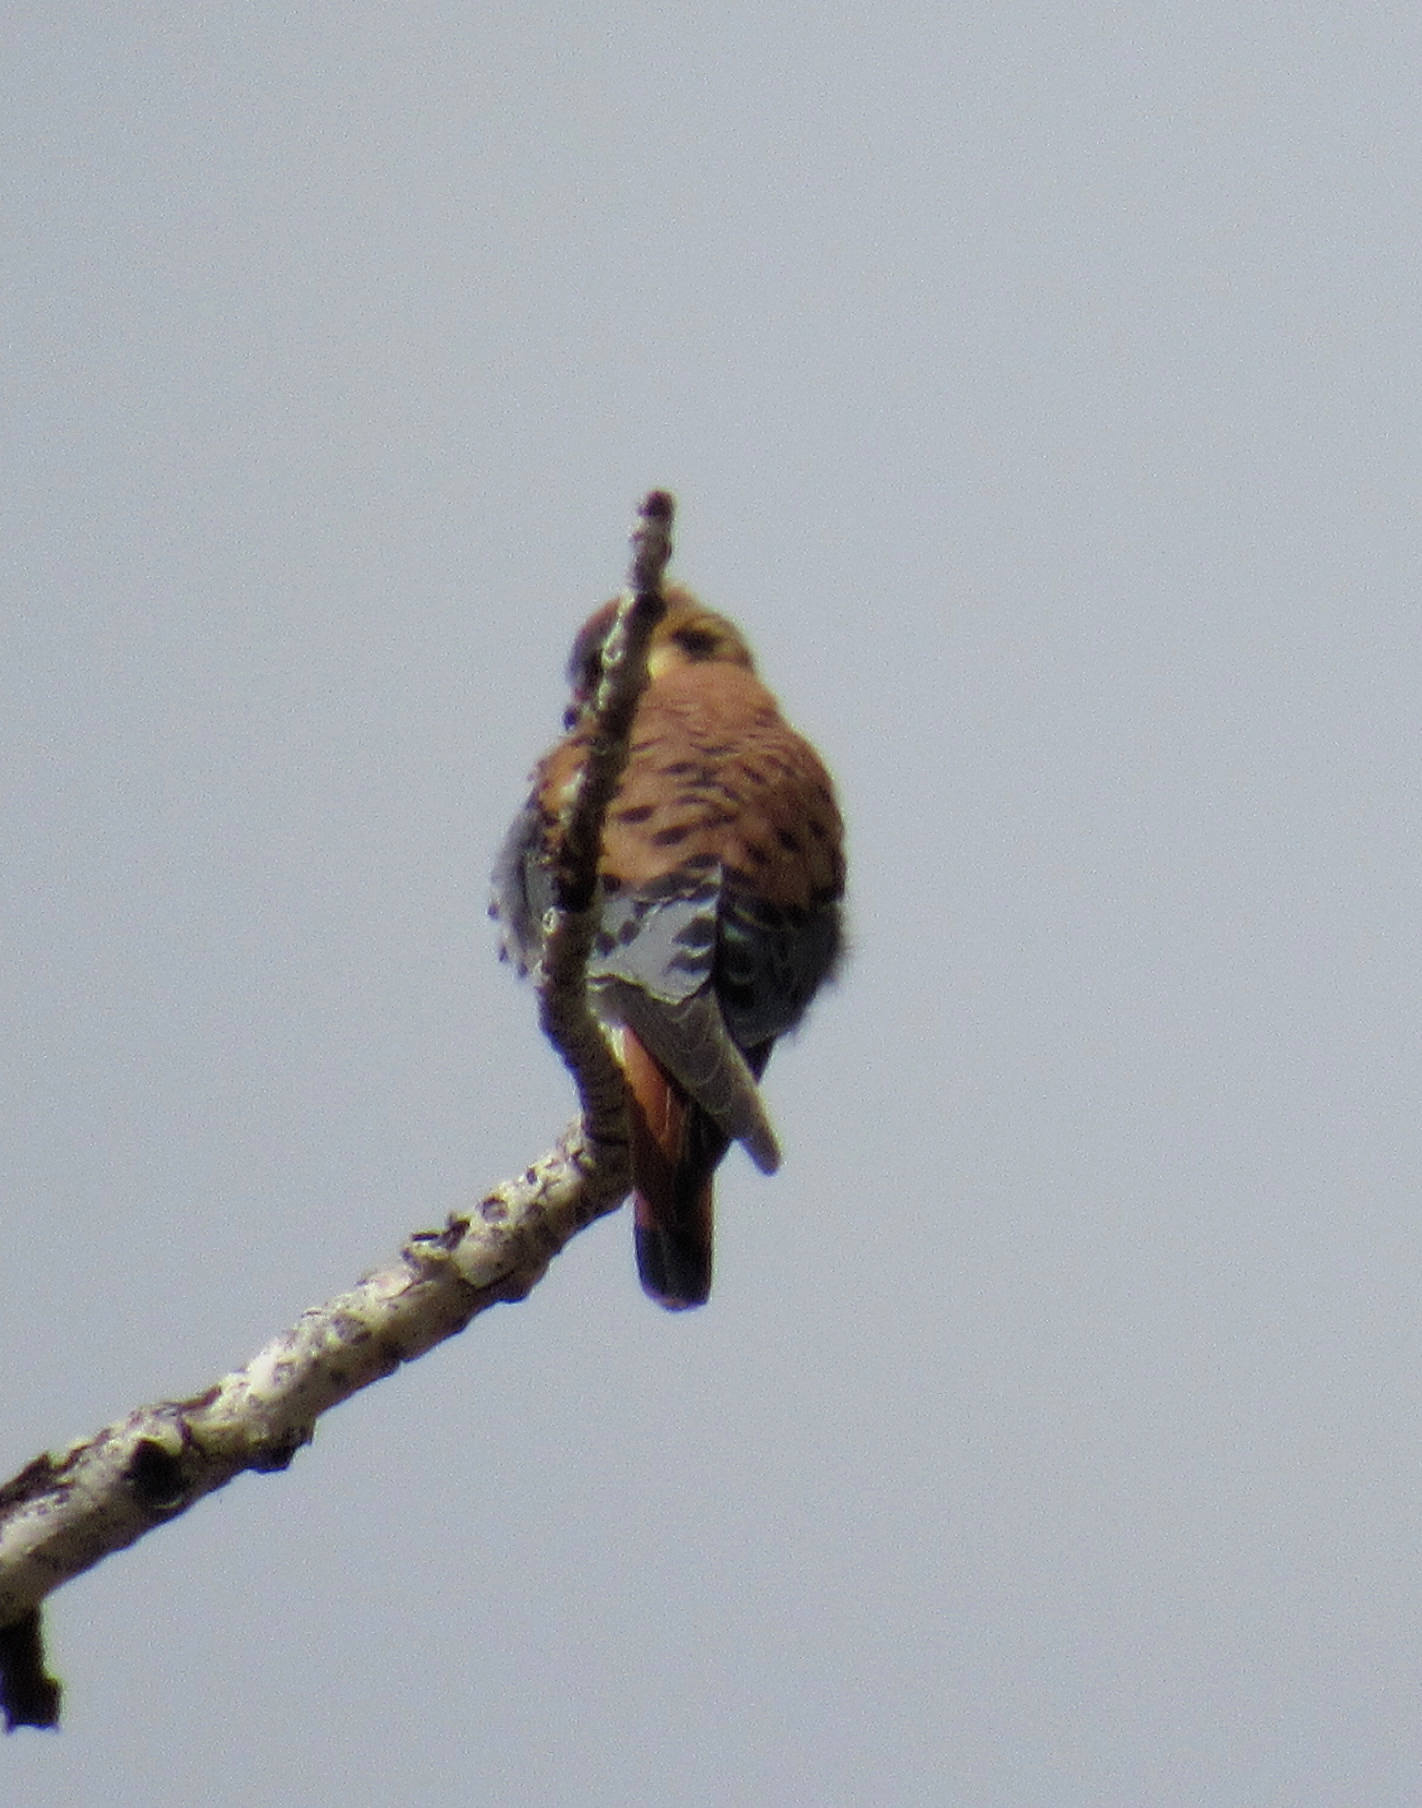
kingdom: Animalia
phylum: Chordata
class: Aves
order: Falconiformes
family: Falconidae
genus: Falco
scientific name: Falco sparverius
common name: American kestrel
